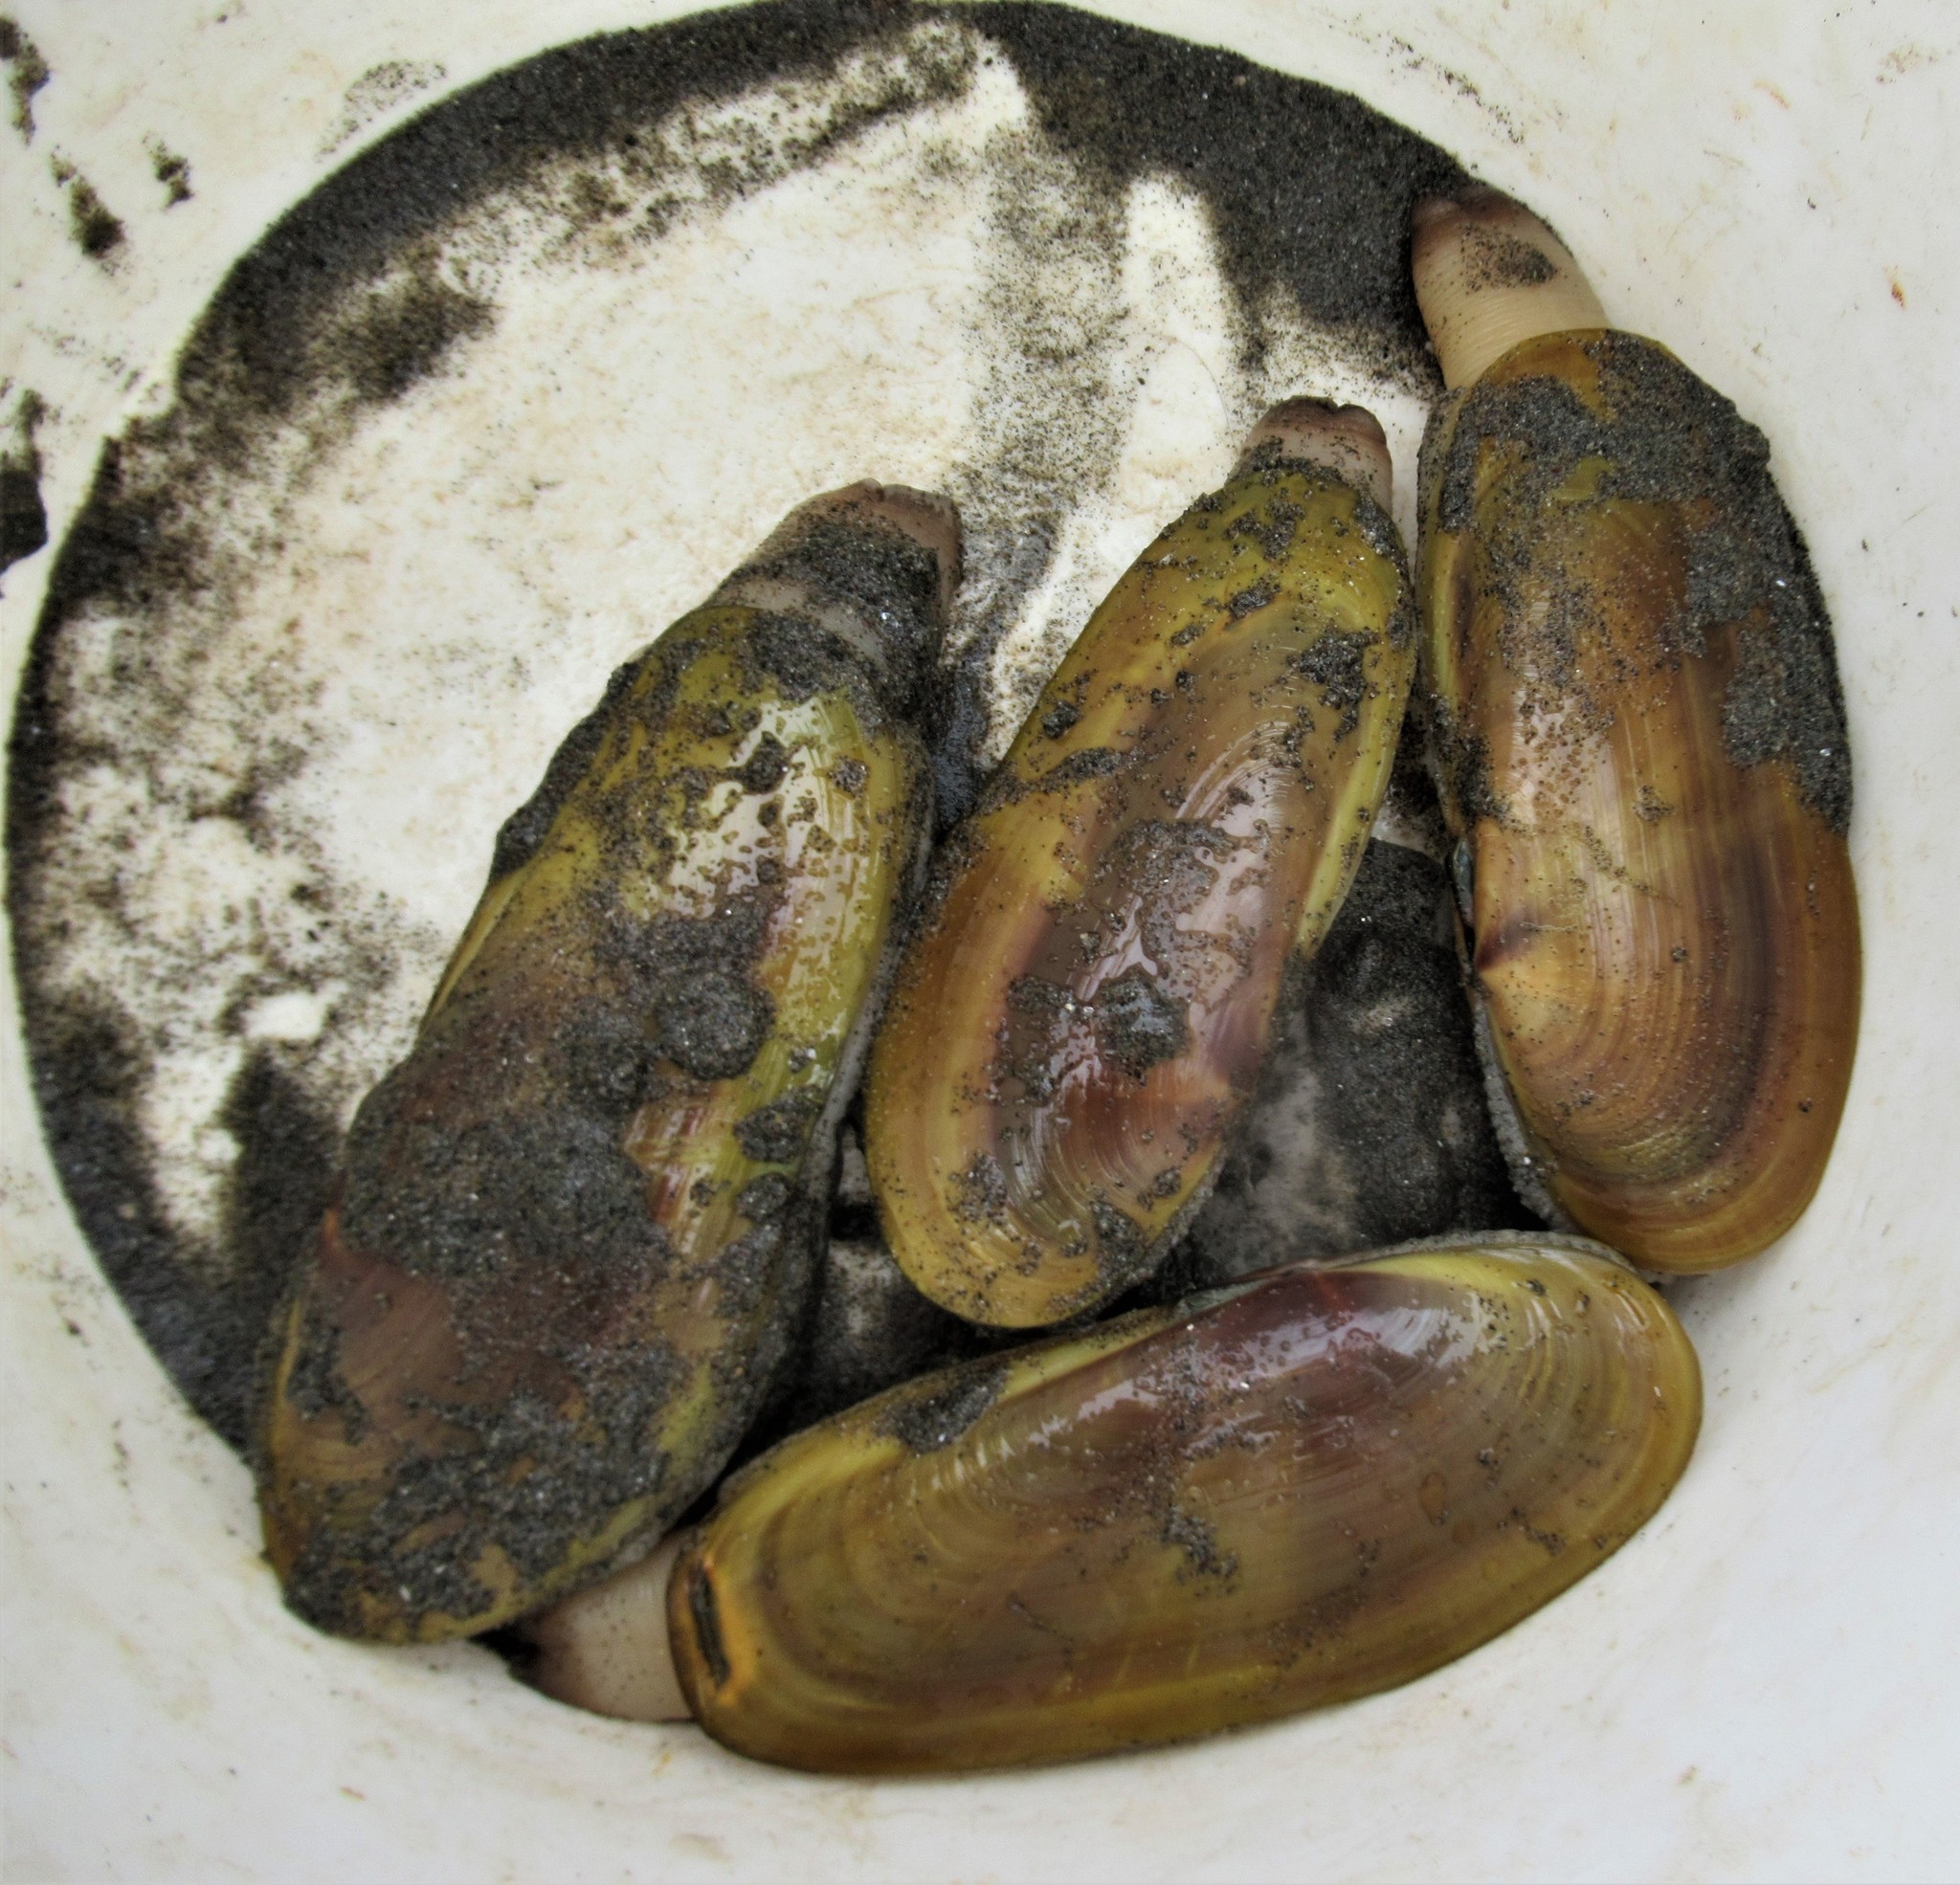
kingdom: Animalia
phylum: Mollusca
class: Bivalvia
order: Adapedonta
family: Pharidae
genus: Siliqua
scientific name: Siliqua patula
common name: Pacific razor clam
